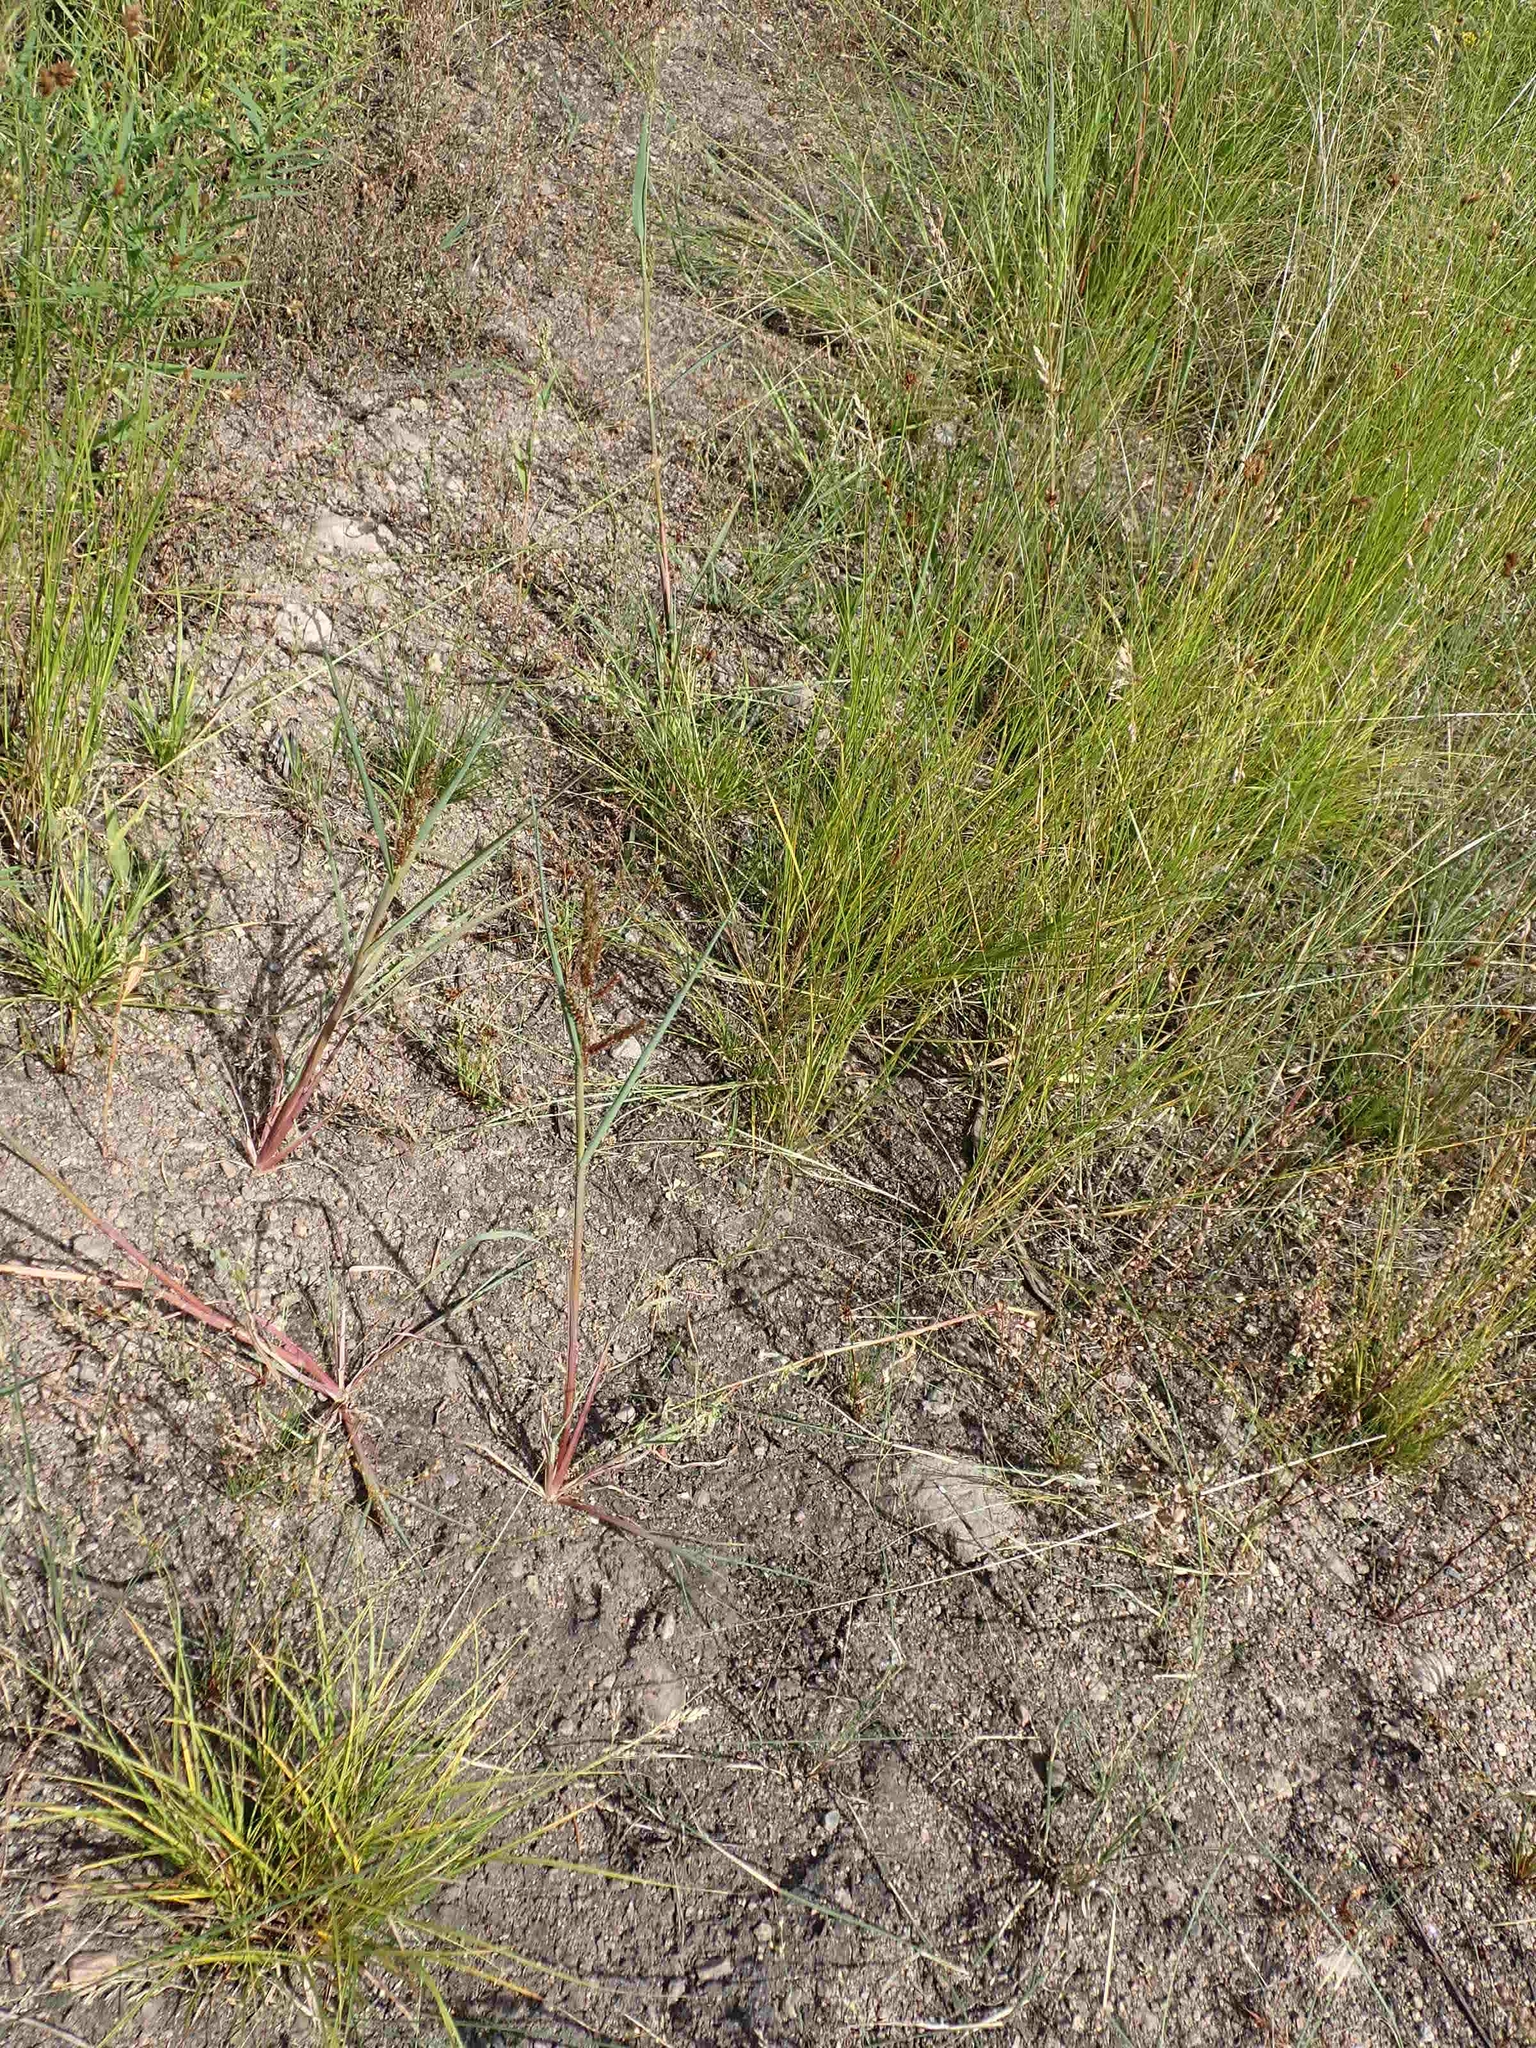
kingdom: Plantae
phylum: Tracheophyta
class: Liliopsida
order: Poales
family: Poaceae
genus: Echinochloa
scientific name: Echinochloa crus-galli
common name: Cockspur
